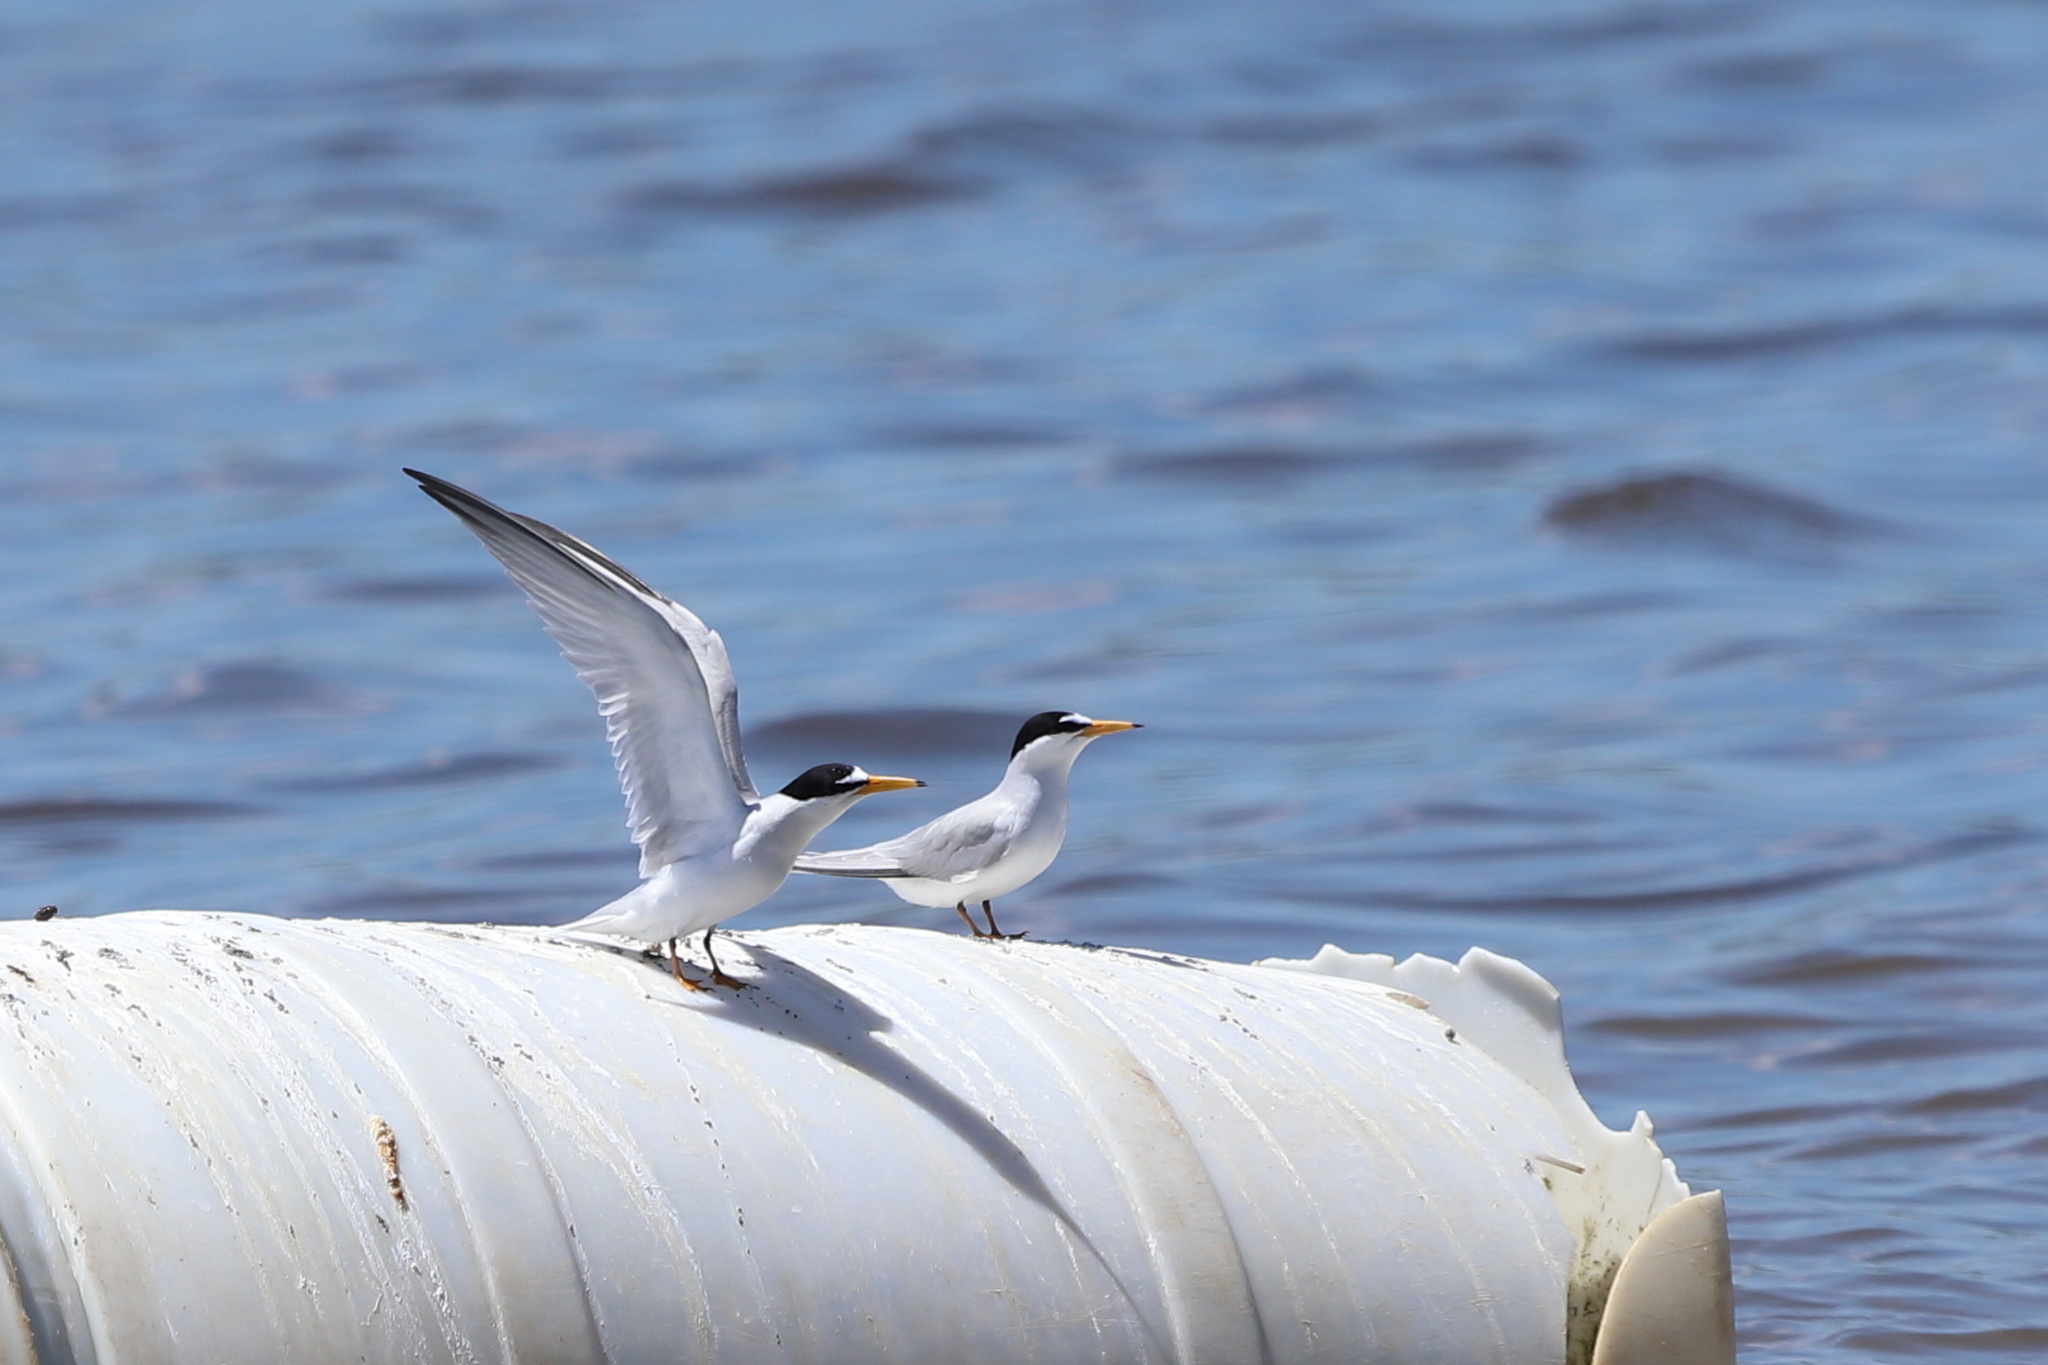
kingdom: Animalia
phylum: Chordata
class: Aves
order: Charadriiformes
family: Laridae
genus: Sternula
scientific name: Sternula antillarum
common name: Least tern
